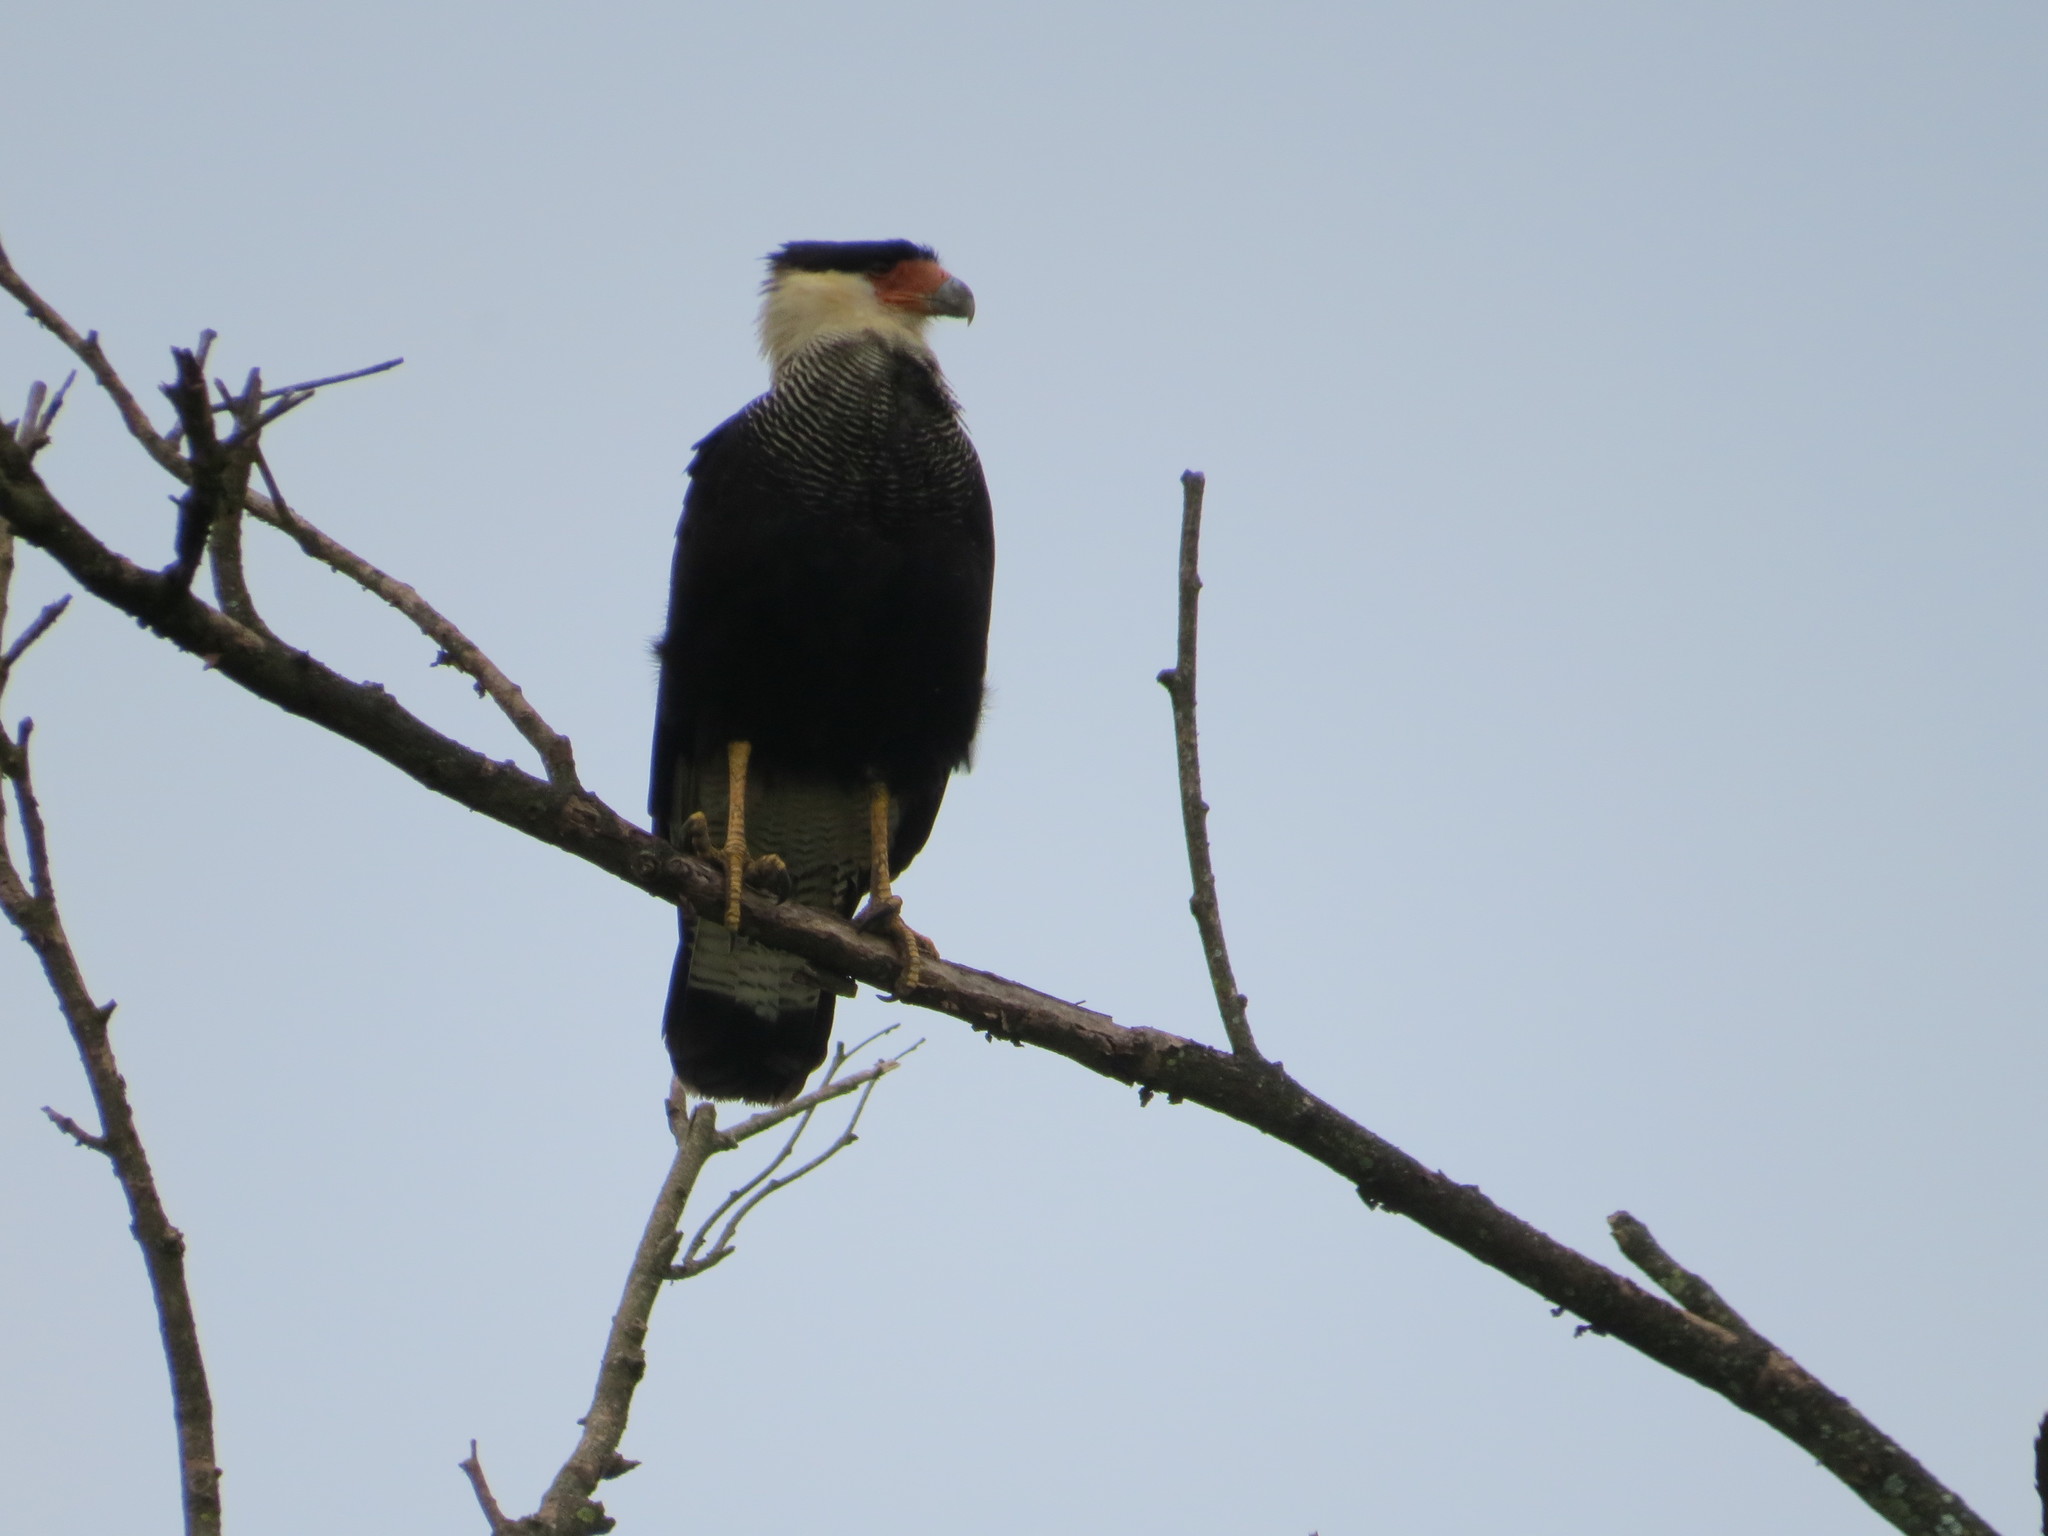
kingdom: Animalia
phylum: Chordata
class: Aves
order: Falconiformes
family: Falconidae
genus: Caracara
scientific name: Caracara plancus
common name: Southern caracara
